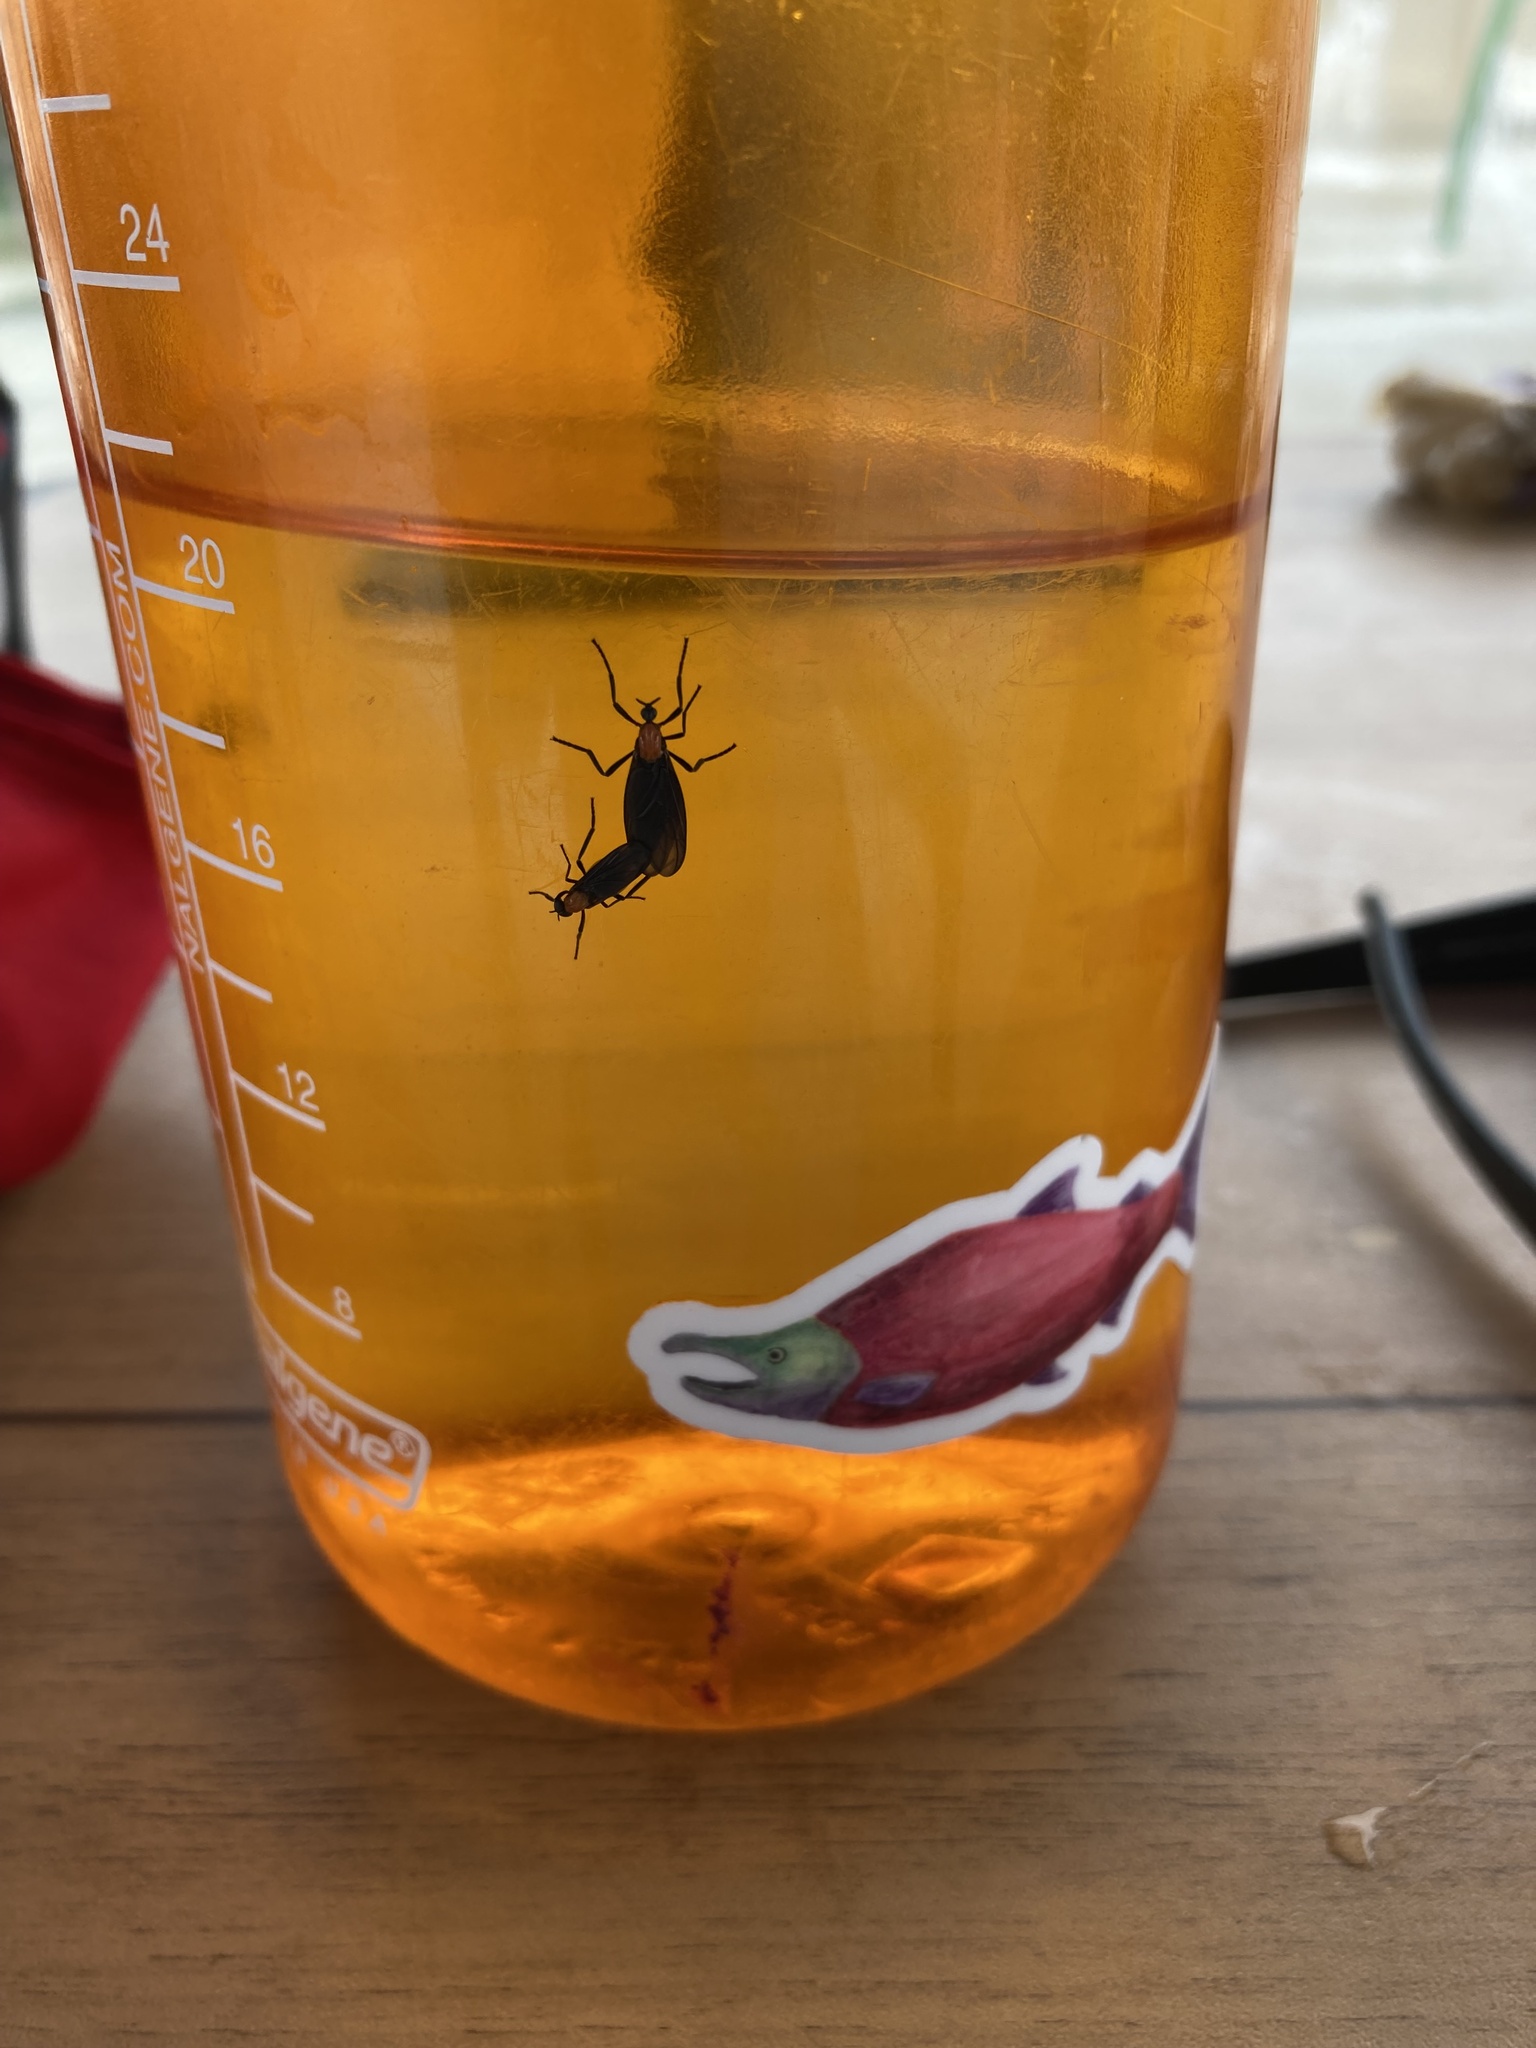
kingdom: Animalia
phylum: Arthropoda
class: Insecta
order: Diptera
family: Bibionidae
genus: Plecia
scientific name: Plecia nearctica
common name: March fly
